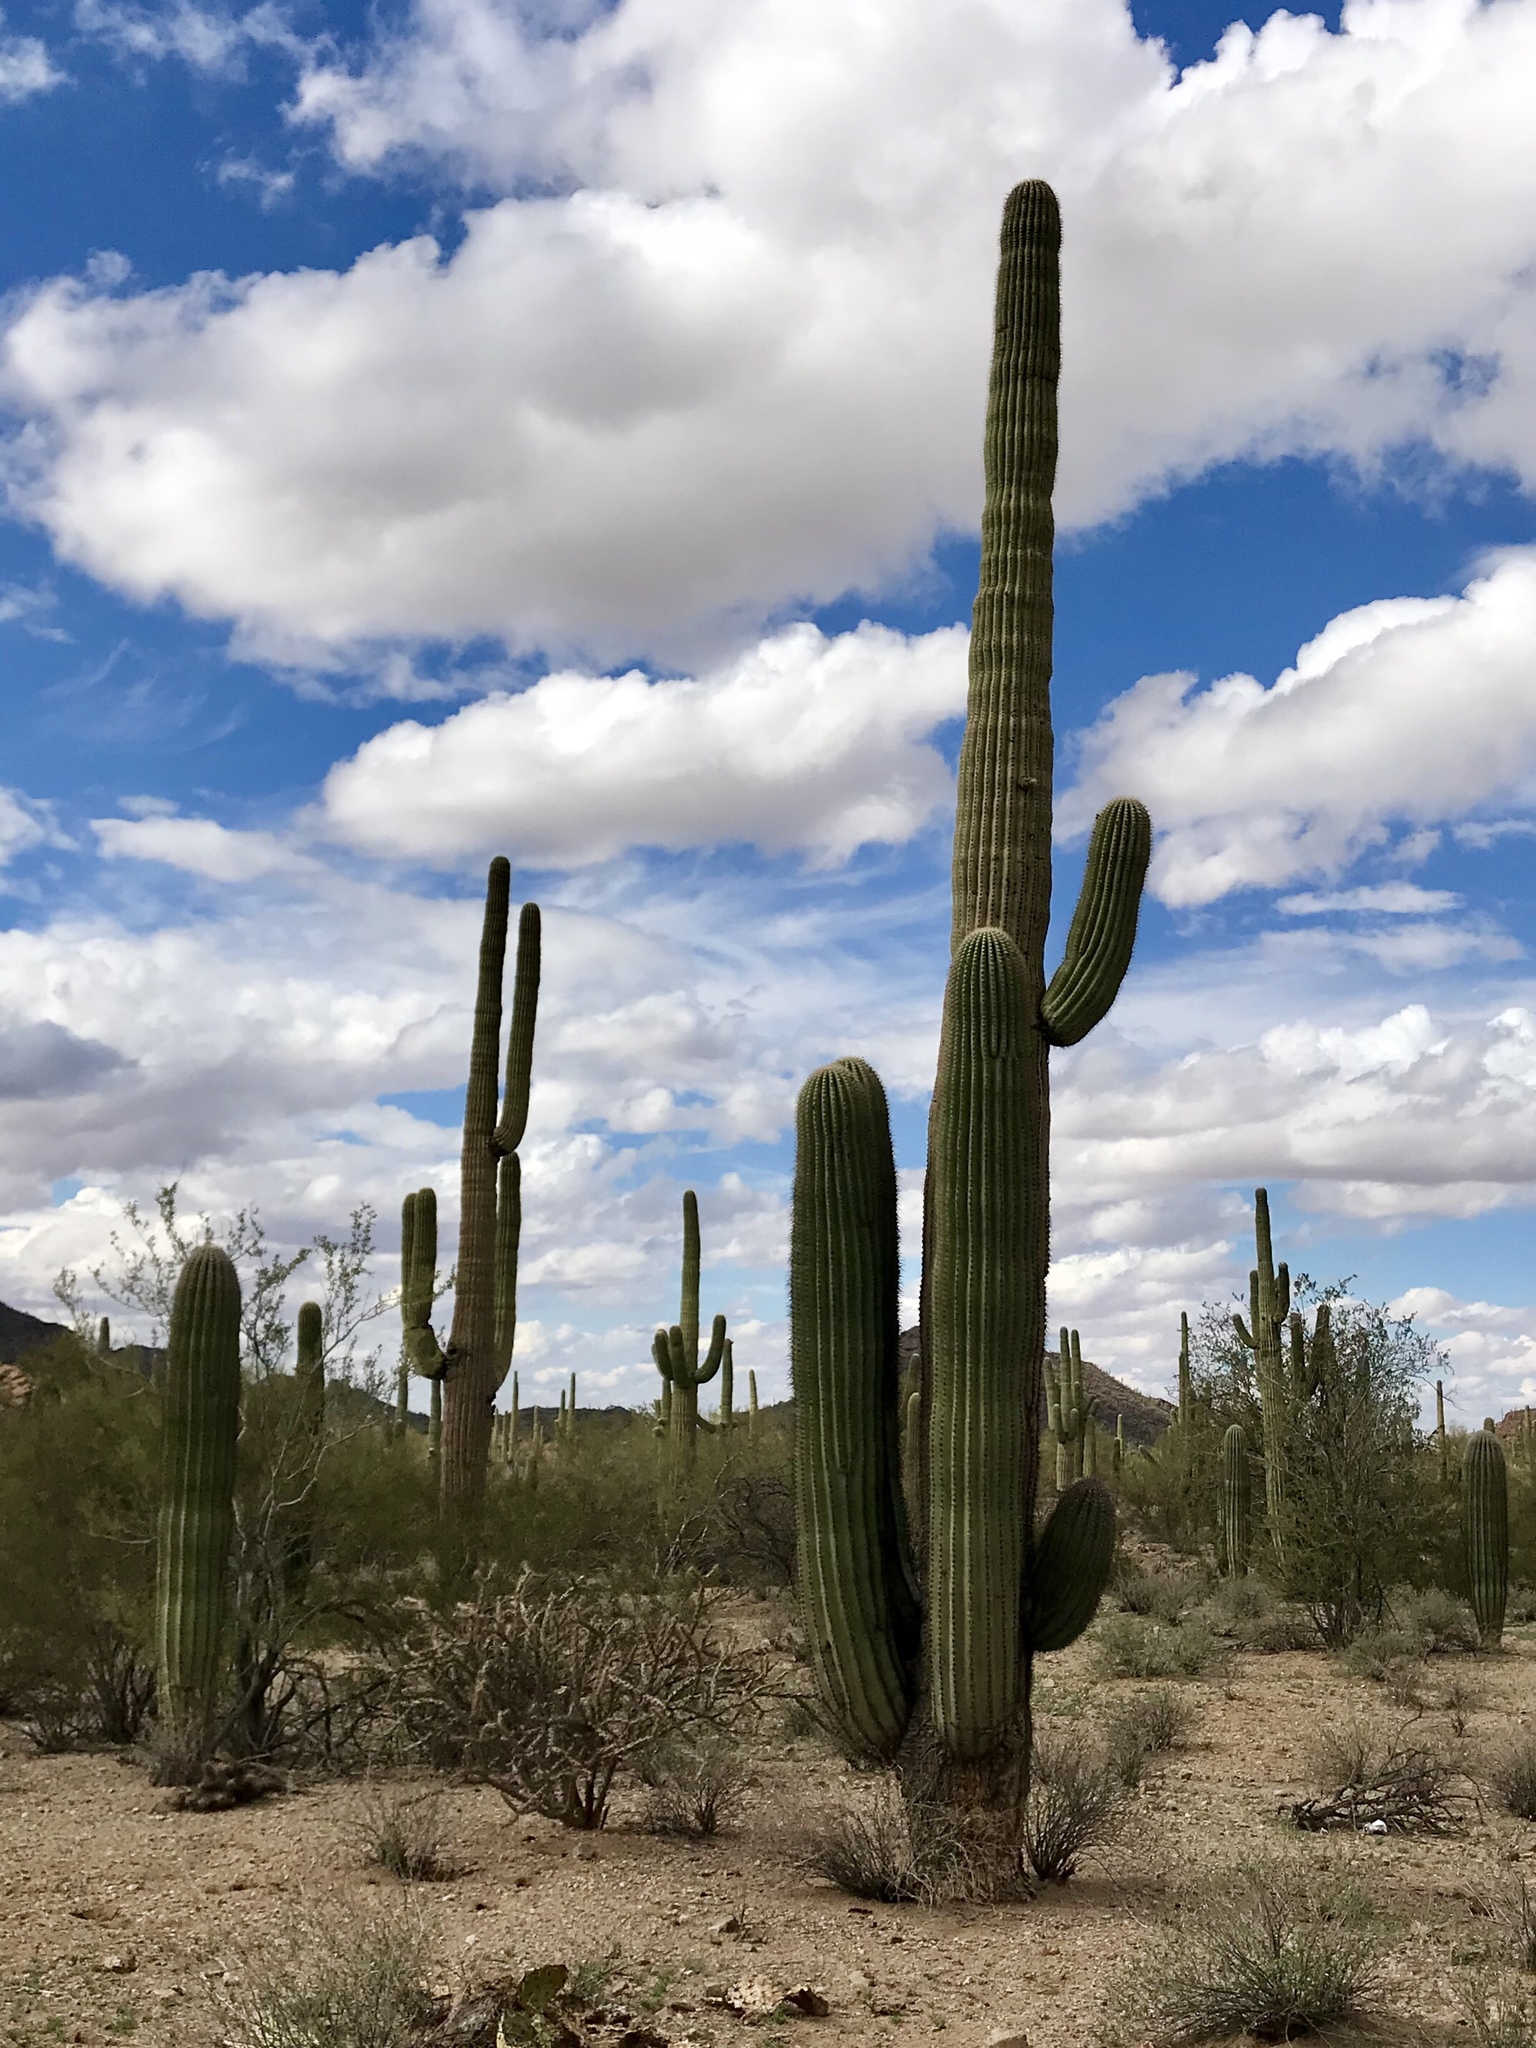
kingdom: Plantae
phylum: Tracheophyta
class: Magnoliopsida
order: Caryophyllales
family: Cactaceae
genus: Carnegiea
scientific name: Carnegiea gigantea
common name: Saguaro
